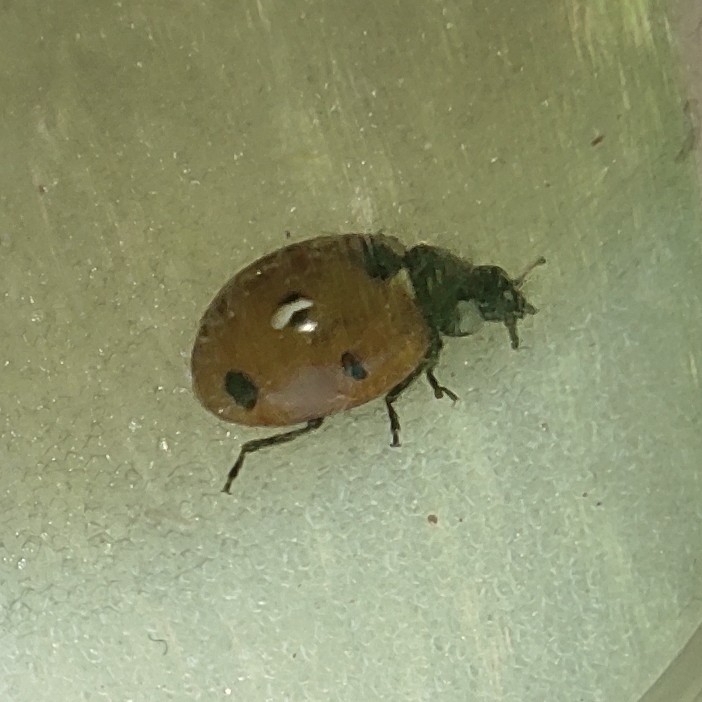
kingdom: Animalia
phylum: Arthropoda
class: Insecta
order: Coleoptera
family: Coccinellidae
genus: Coccinella
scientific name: Coccinella septempunctata
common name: Sevenspotted lady beetle
